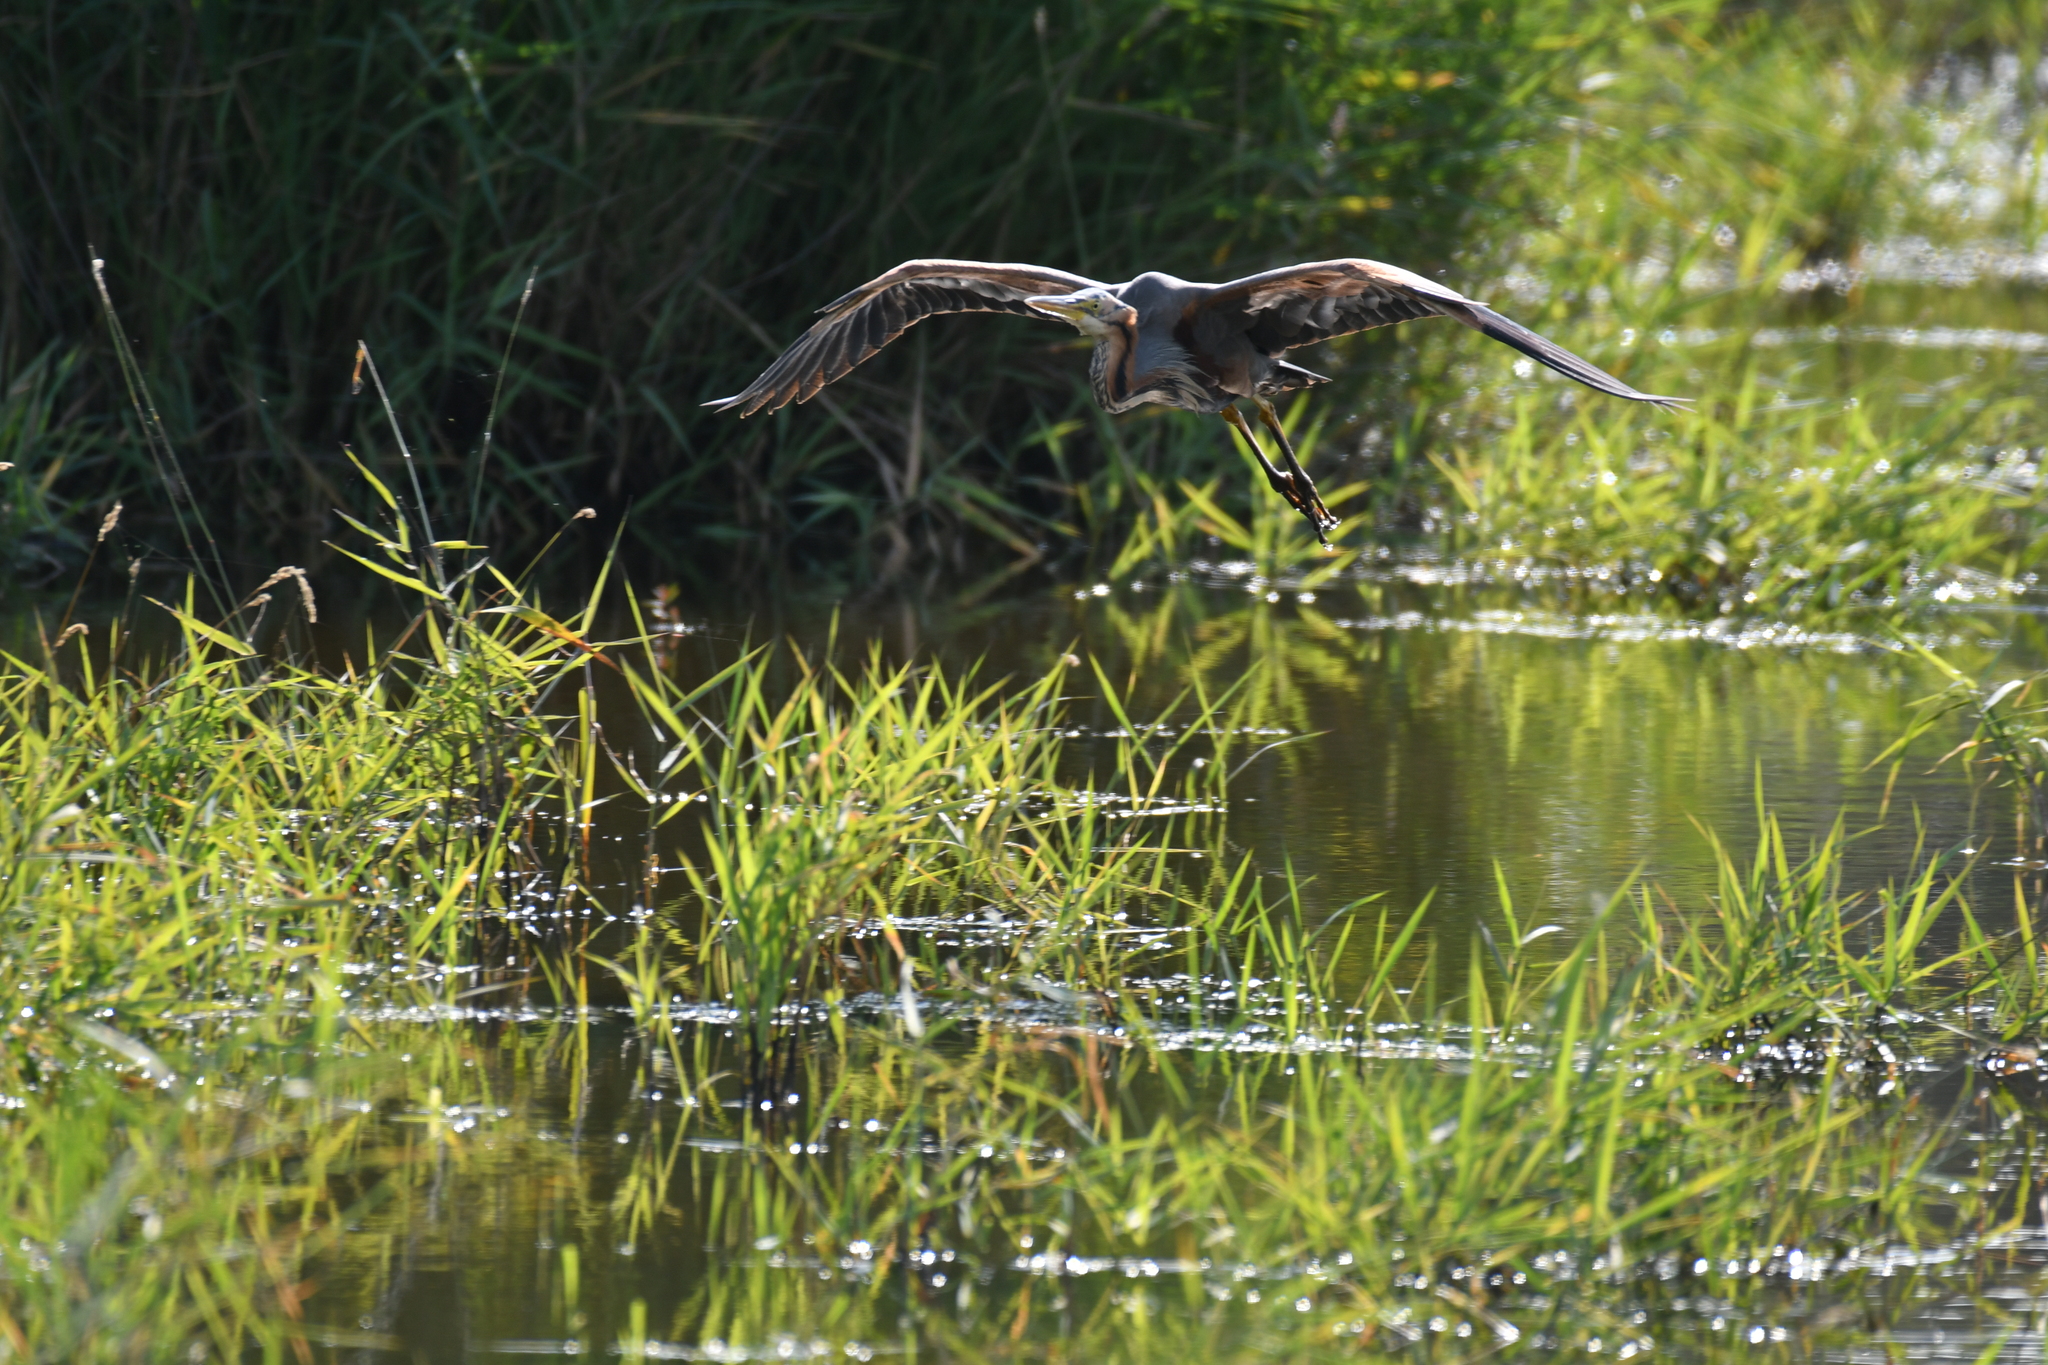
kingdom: Animalia
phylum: Chordata
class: Aves
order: Pelecaniformes
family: Ardeidae
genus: Ardea
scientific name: Ardea purpurea
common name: Purple heron
